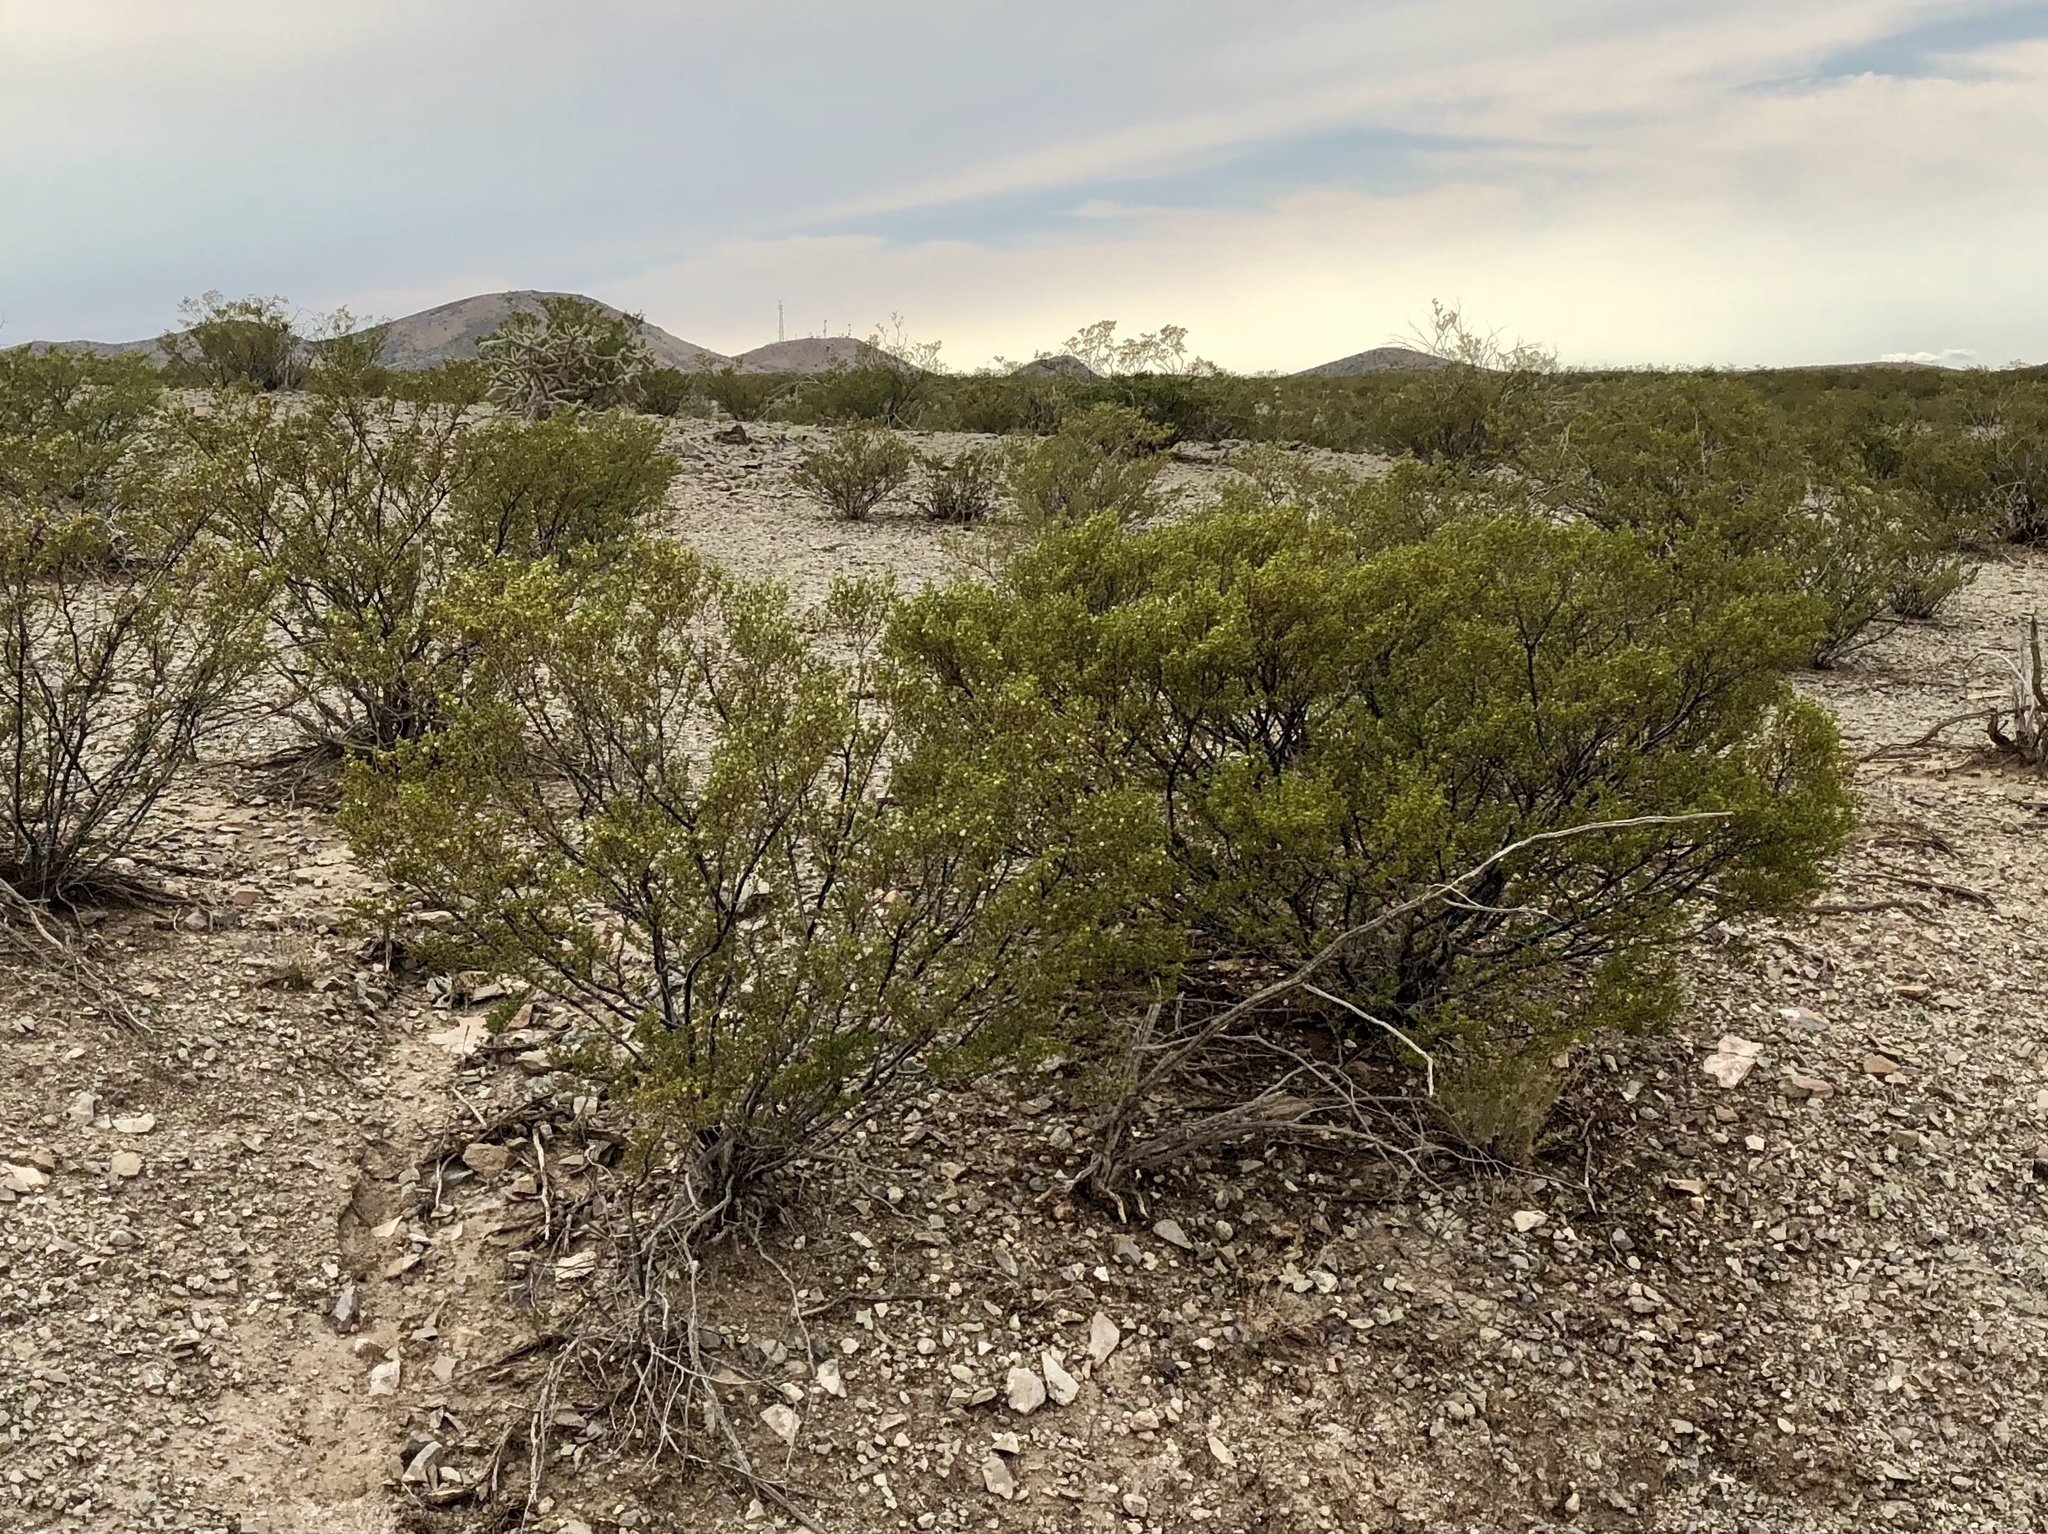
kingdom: Plantae
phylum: Tracheophyta
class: Magnoliopsida
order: Zygophyllales
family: Zygophyllaceae
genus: Larrea
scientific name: Larrea tridentata
